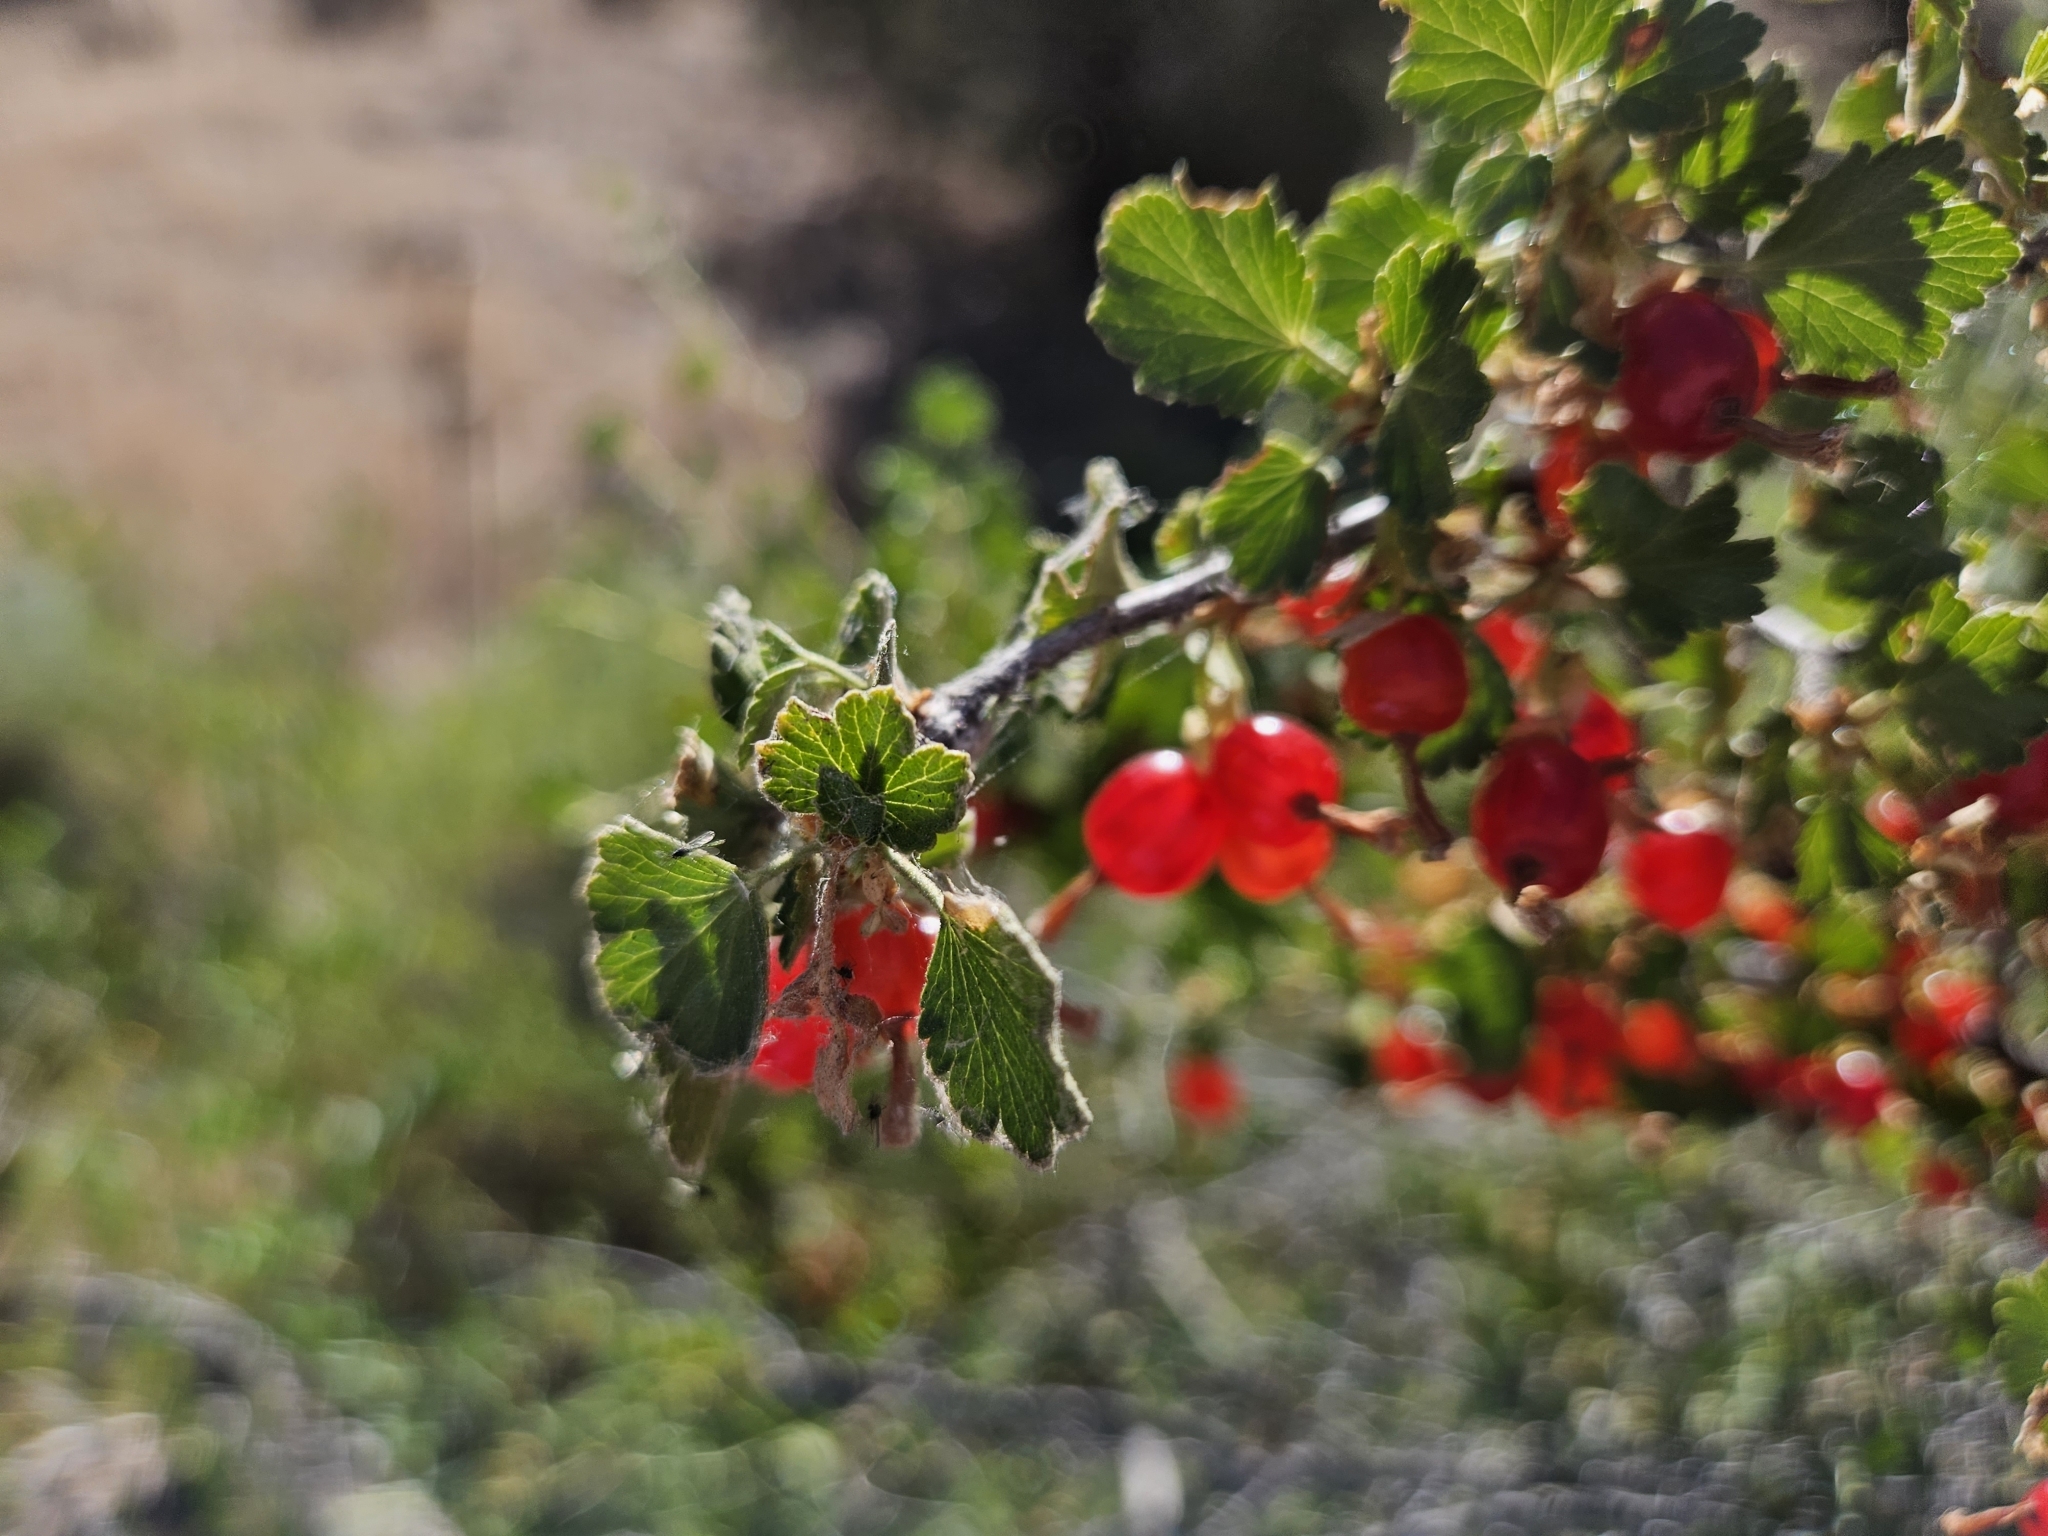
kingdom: Plantae
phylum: Tracheophyta
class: Magnoliopsida
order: Saxifragales
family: Grossulariaceae
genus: Ribes
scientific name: Ribes cereum
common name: Wax currant
